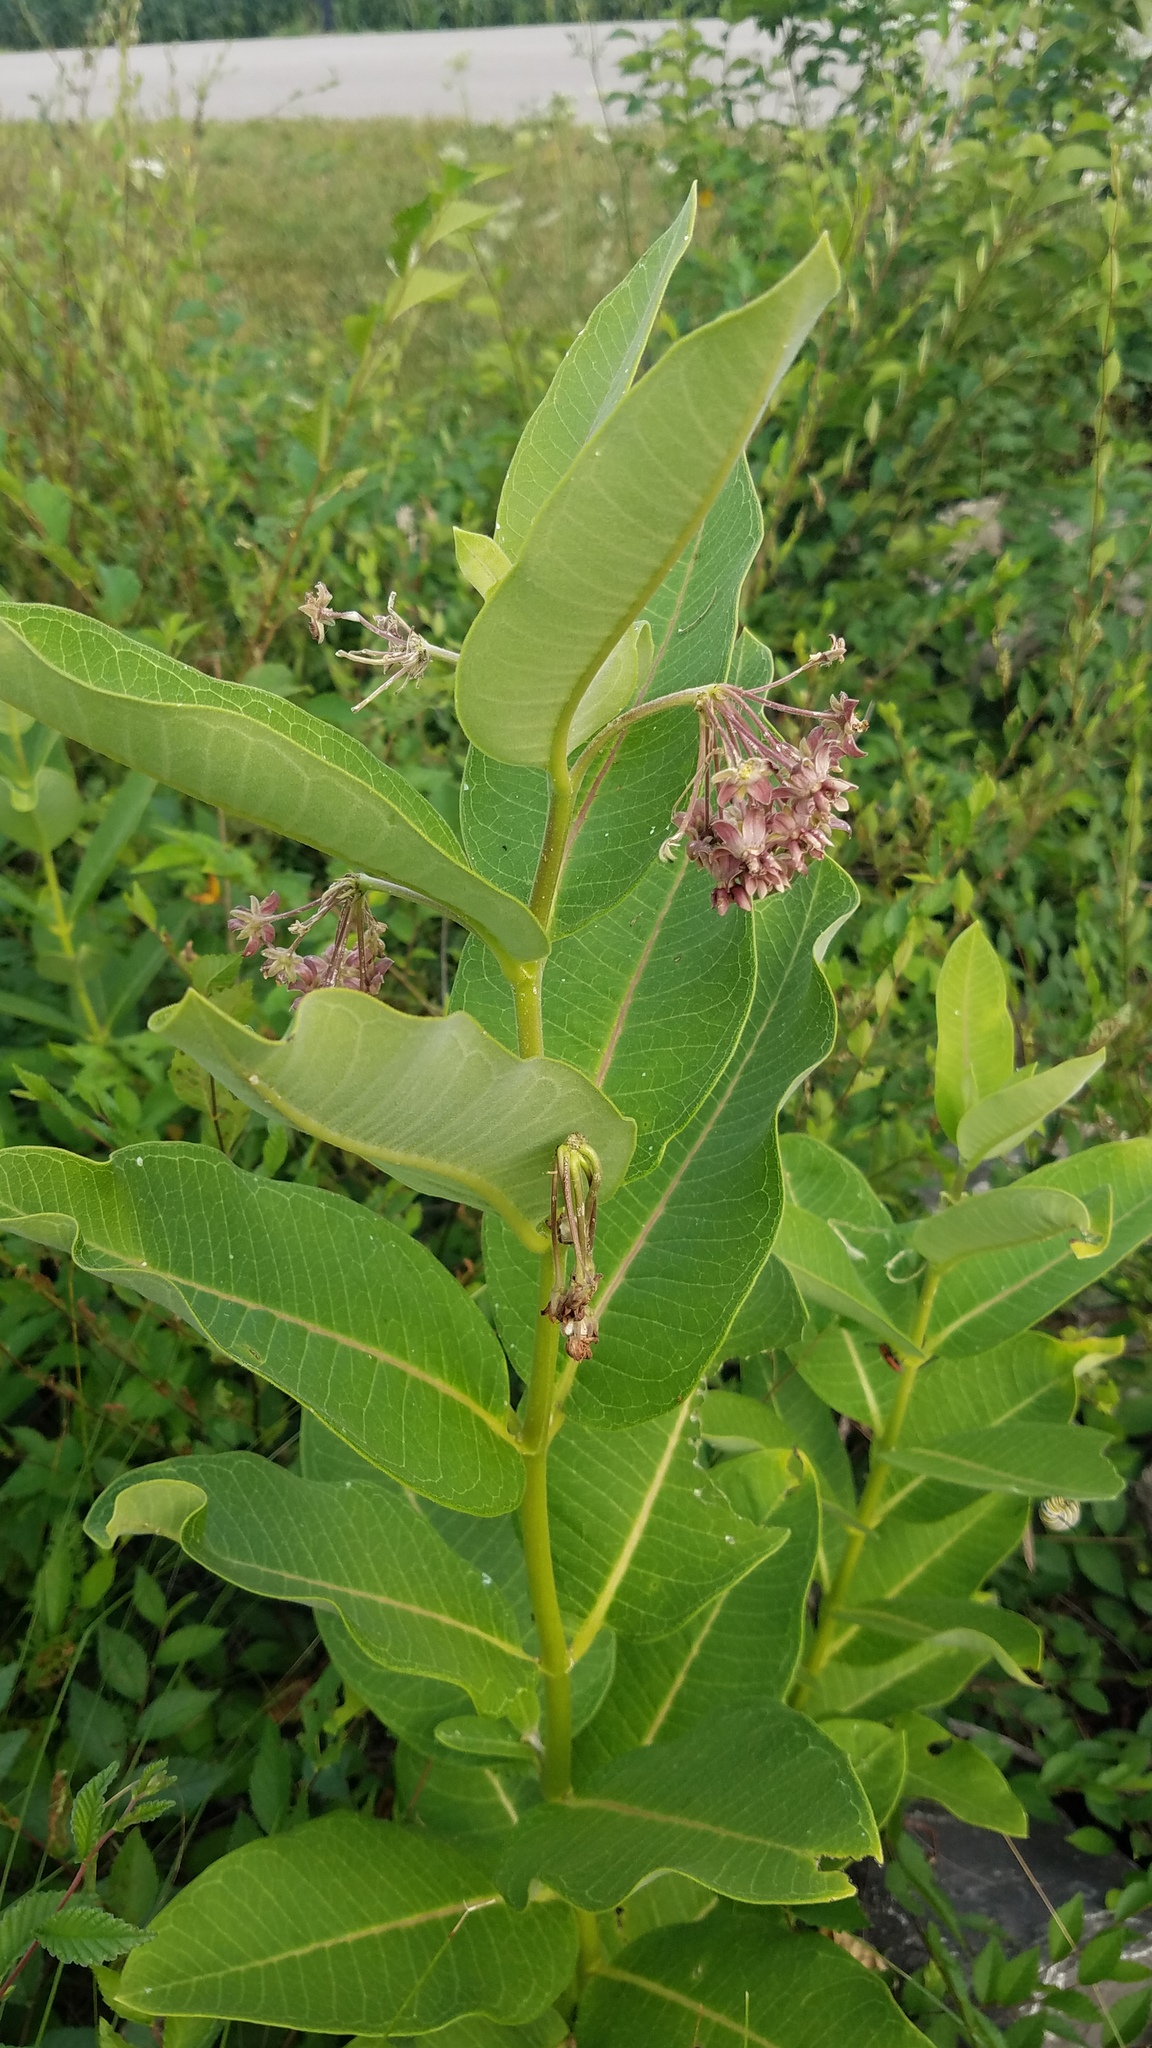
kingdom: Plantae
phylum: Tracheophyta
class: Magnoliopsida
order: Gentianales
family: Apocynaceae
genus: Asclepias
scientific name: Asclepias syriaca
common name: Common milkweed
